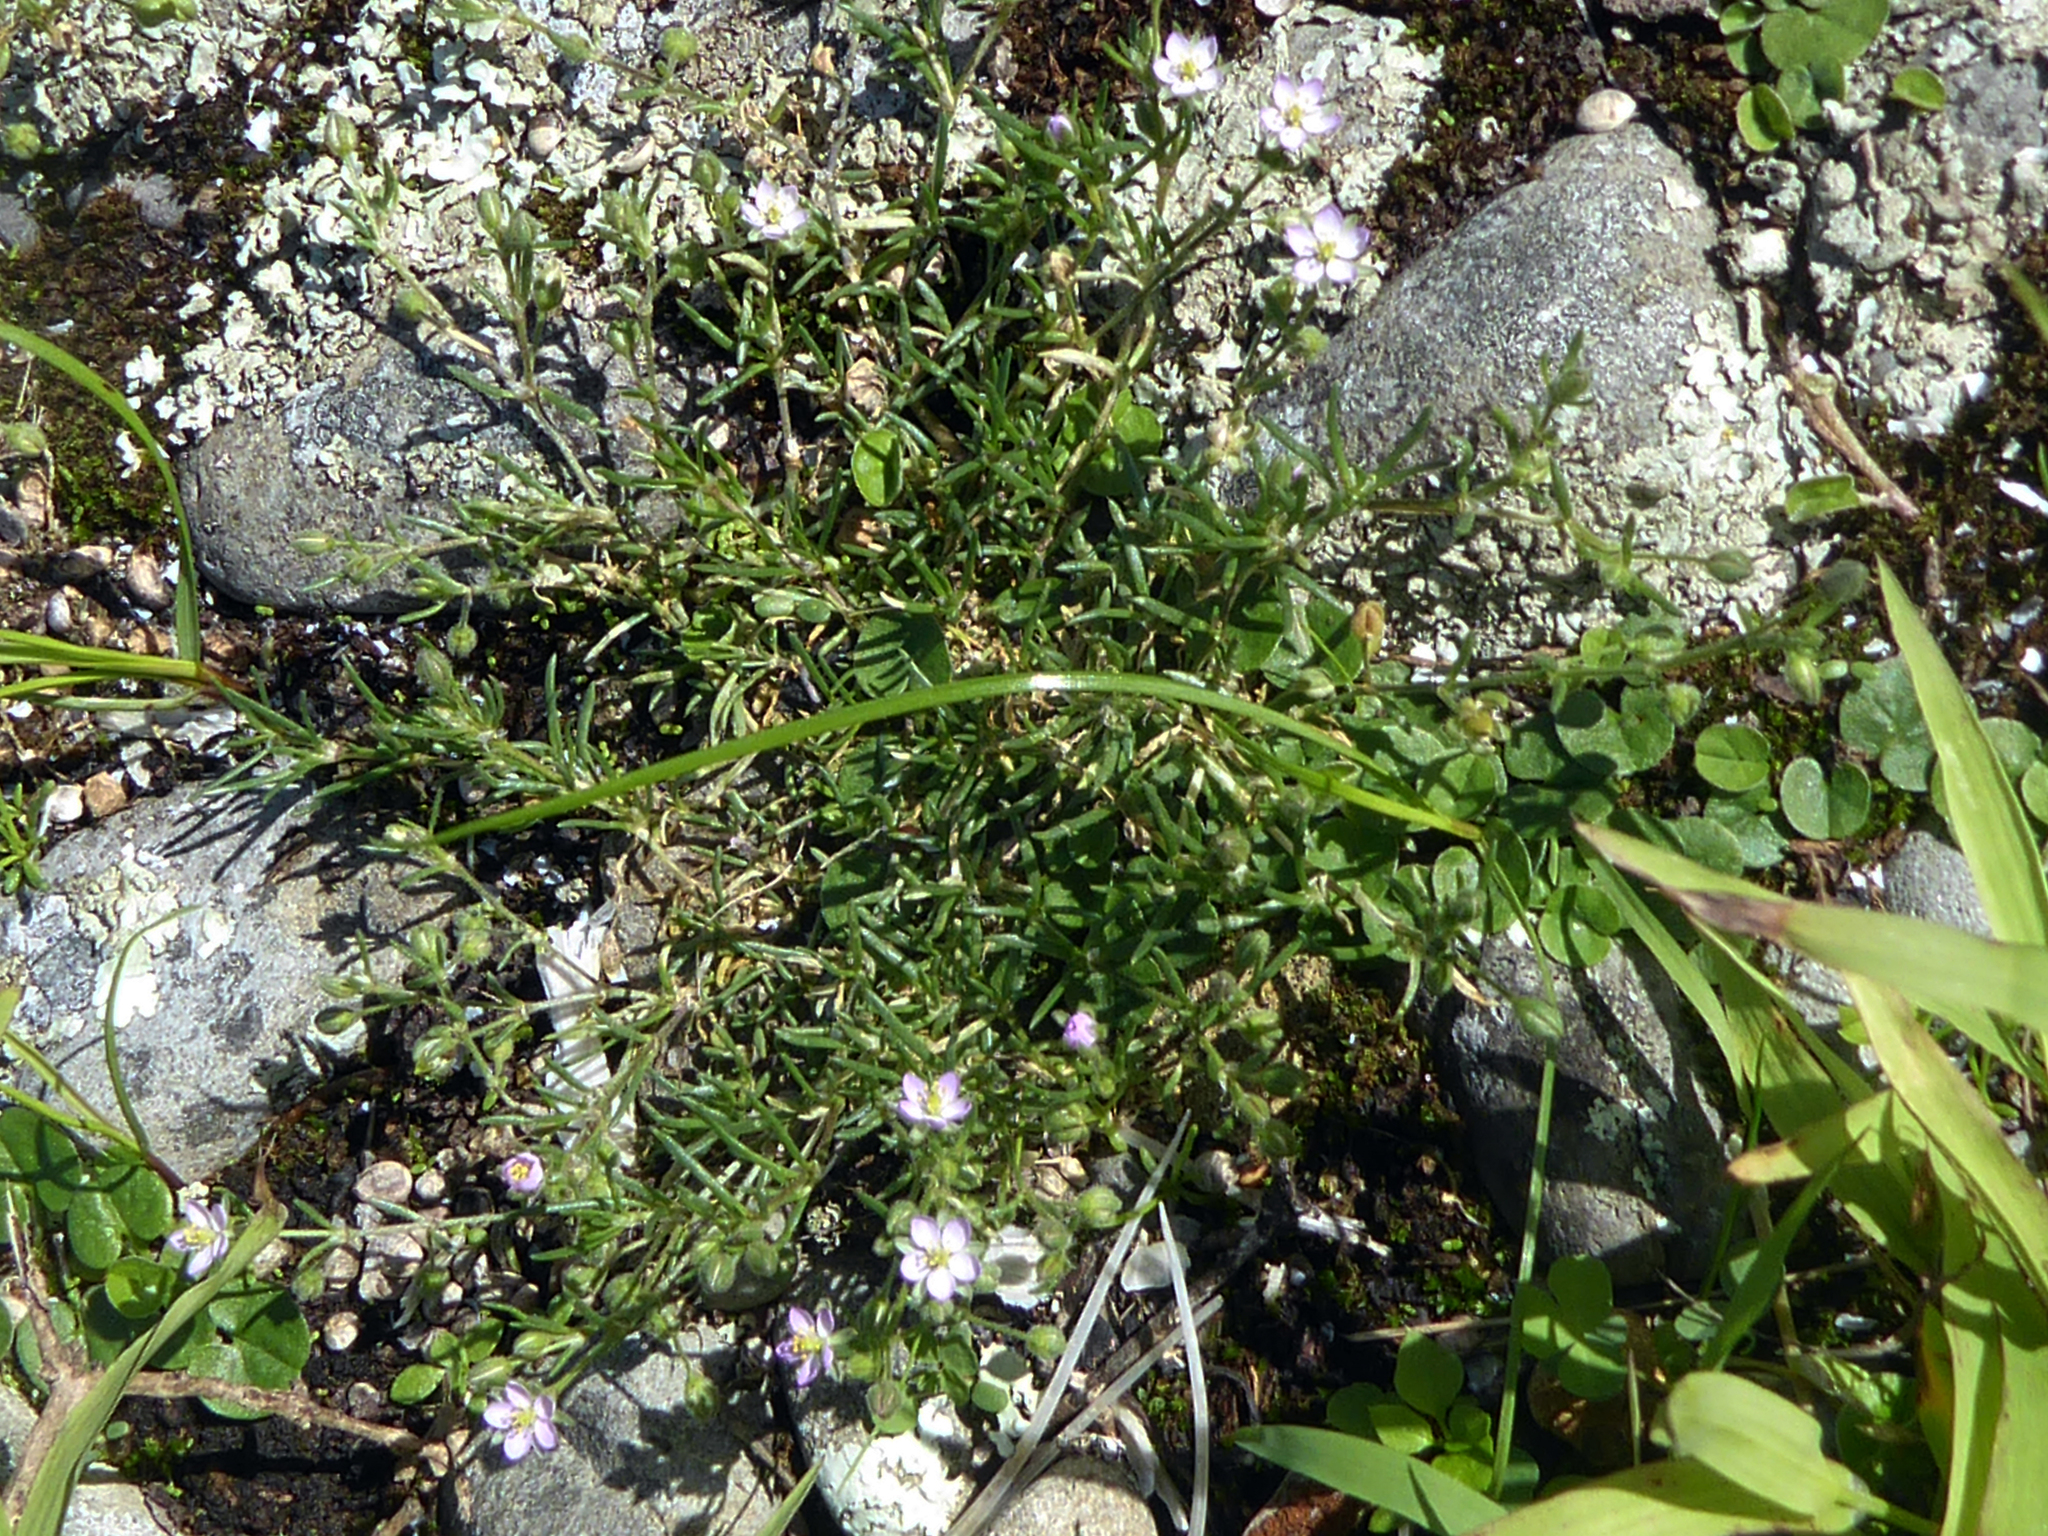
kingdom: Plantae
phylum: Tracheophyta
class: Magnoliopsida
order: Caryophyllales
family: Caryophyllaceae
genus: Spergularia
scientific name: Spergularia rubra
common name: Red sand-spurrey
